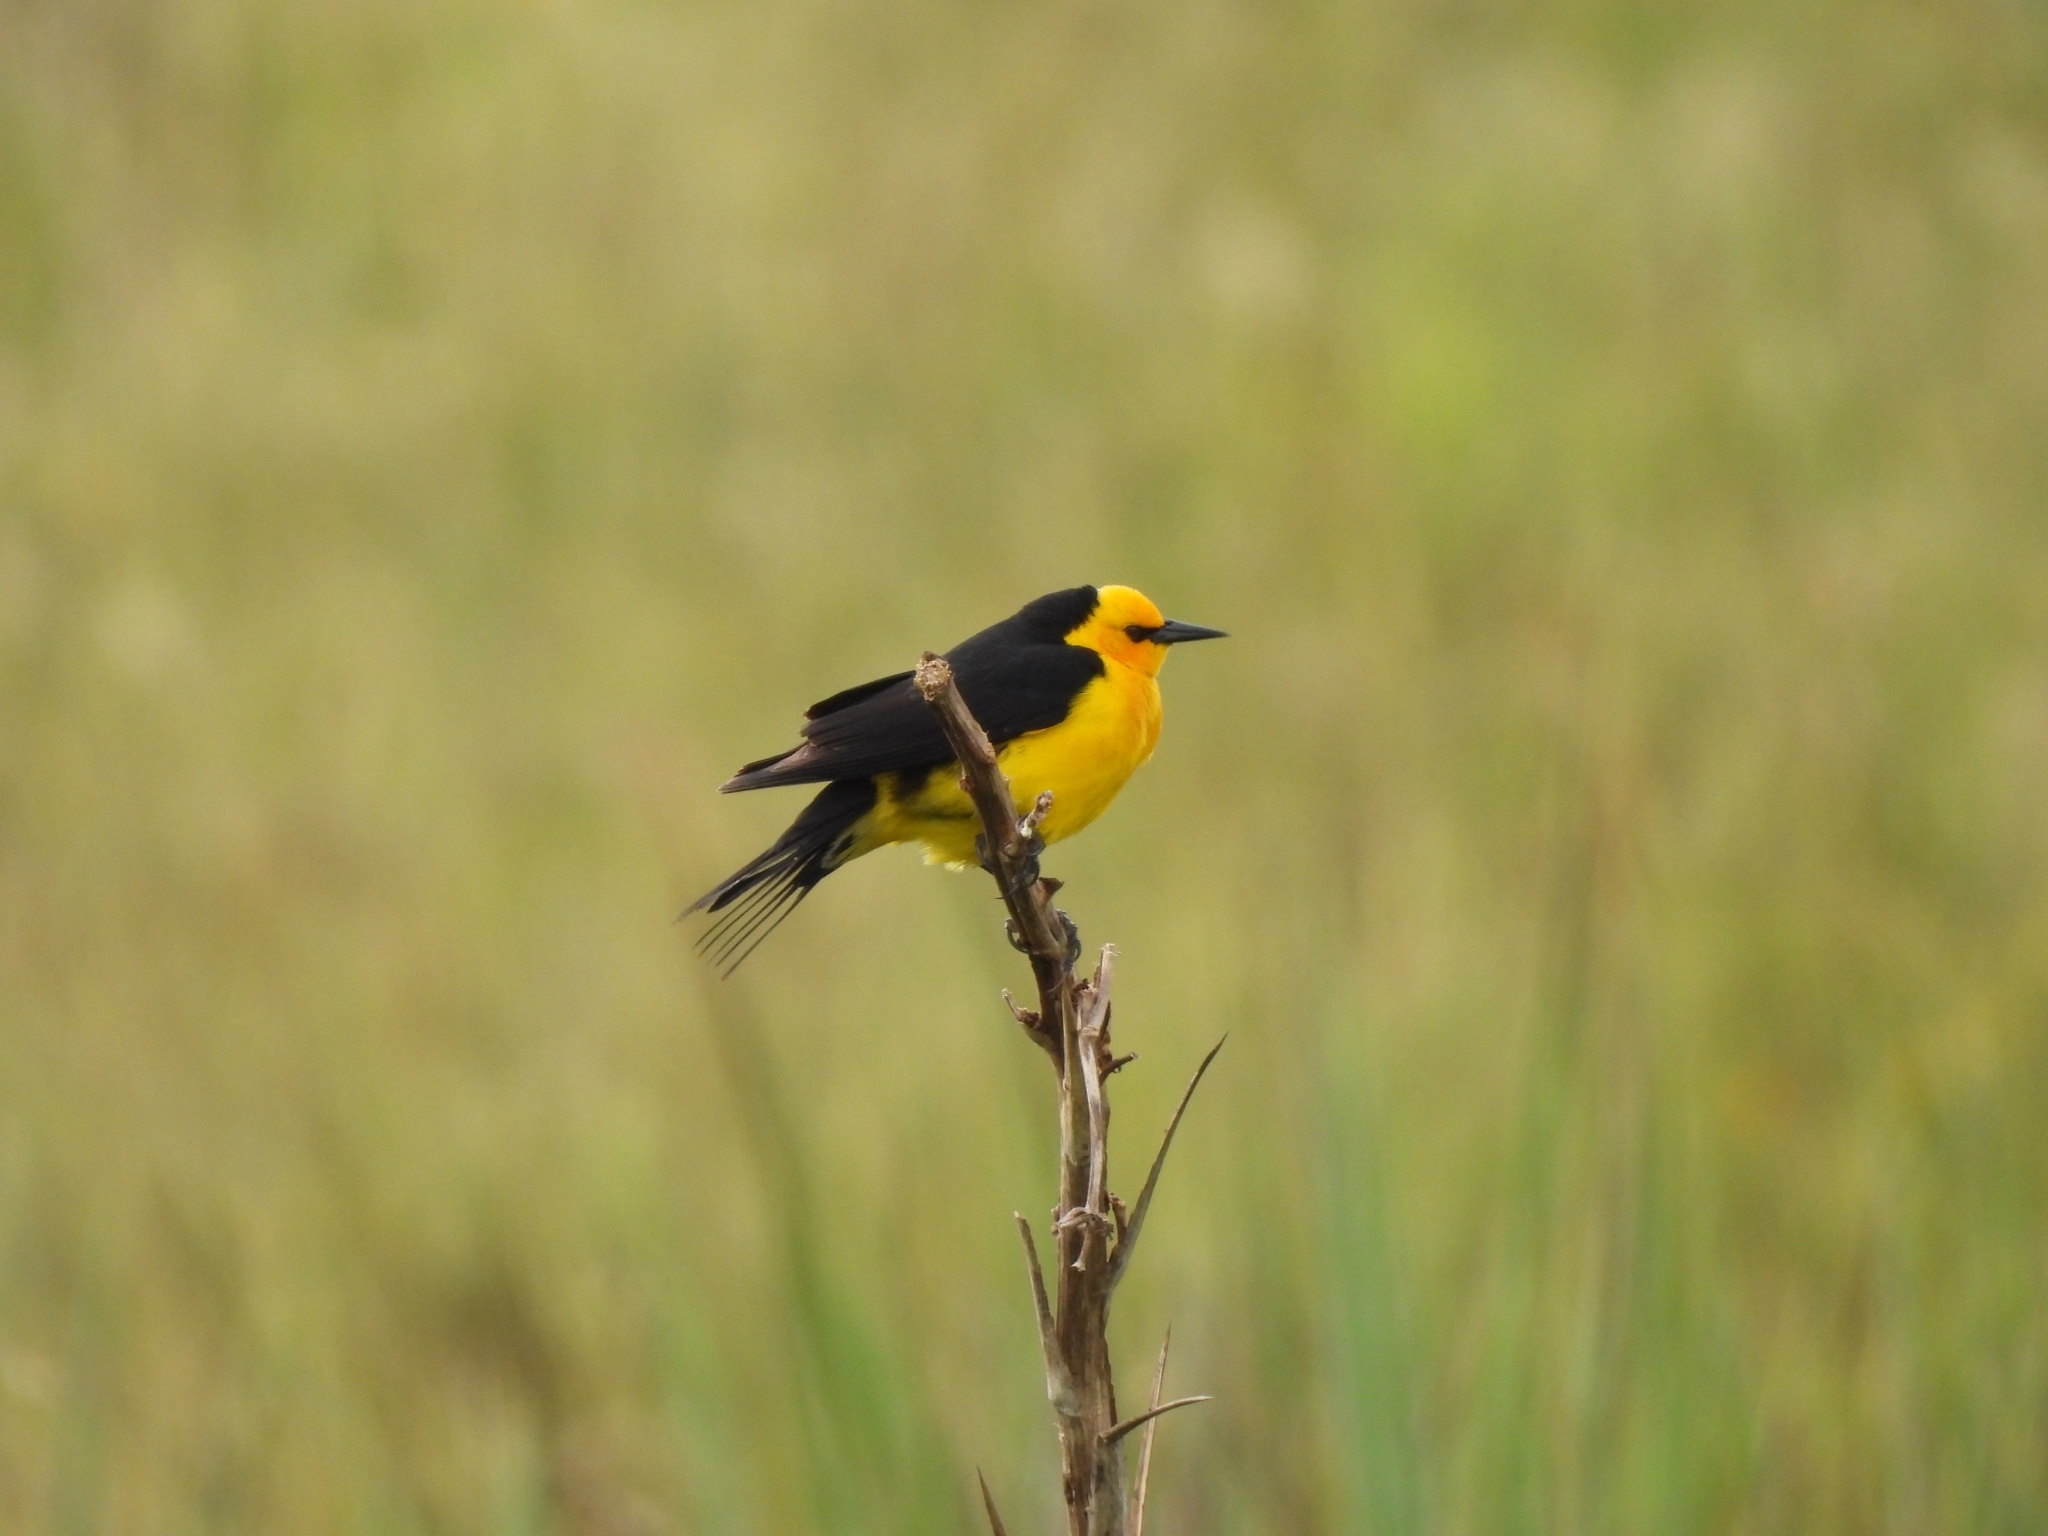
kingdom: Animalia
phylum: Chordata
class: Aves
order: Passeriformes
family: Icteridae
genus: Xanthopsar
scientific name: Xanthopsar flavus
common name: Saffron-cowled blackbird
